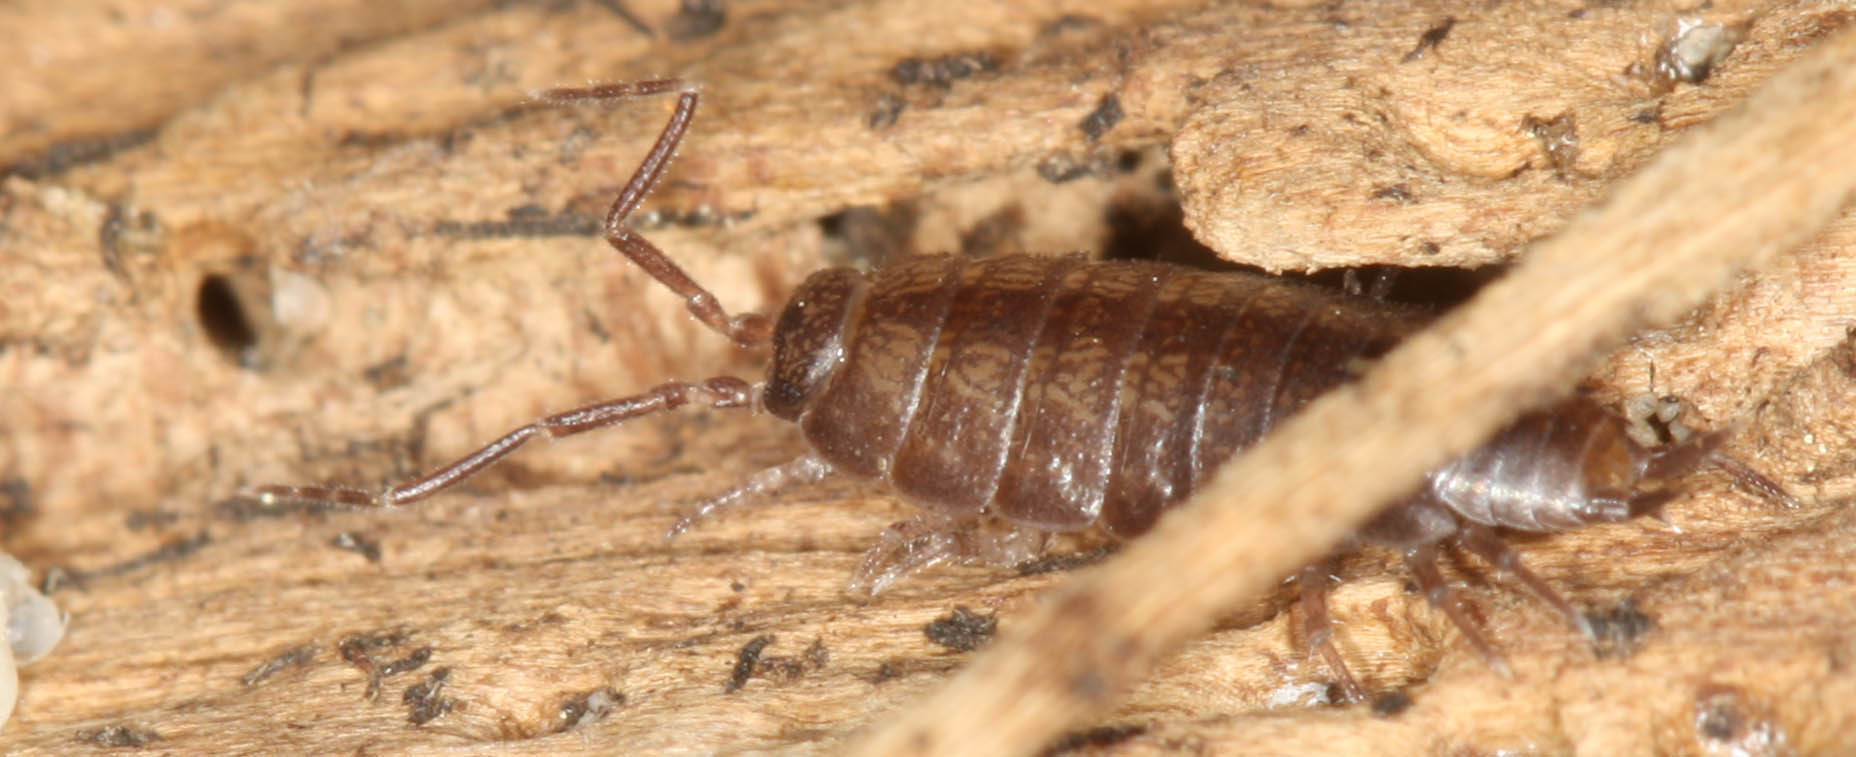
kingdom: Animalia
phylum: Arthropoda
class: Malacostraca
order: Isopoda
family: Halophilosciidae
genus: Littorophiloscia
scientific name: Littorophiloscia richardsonae
